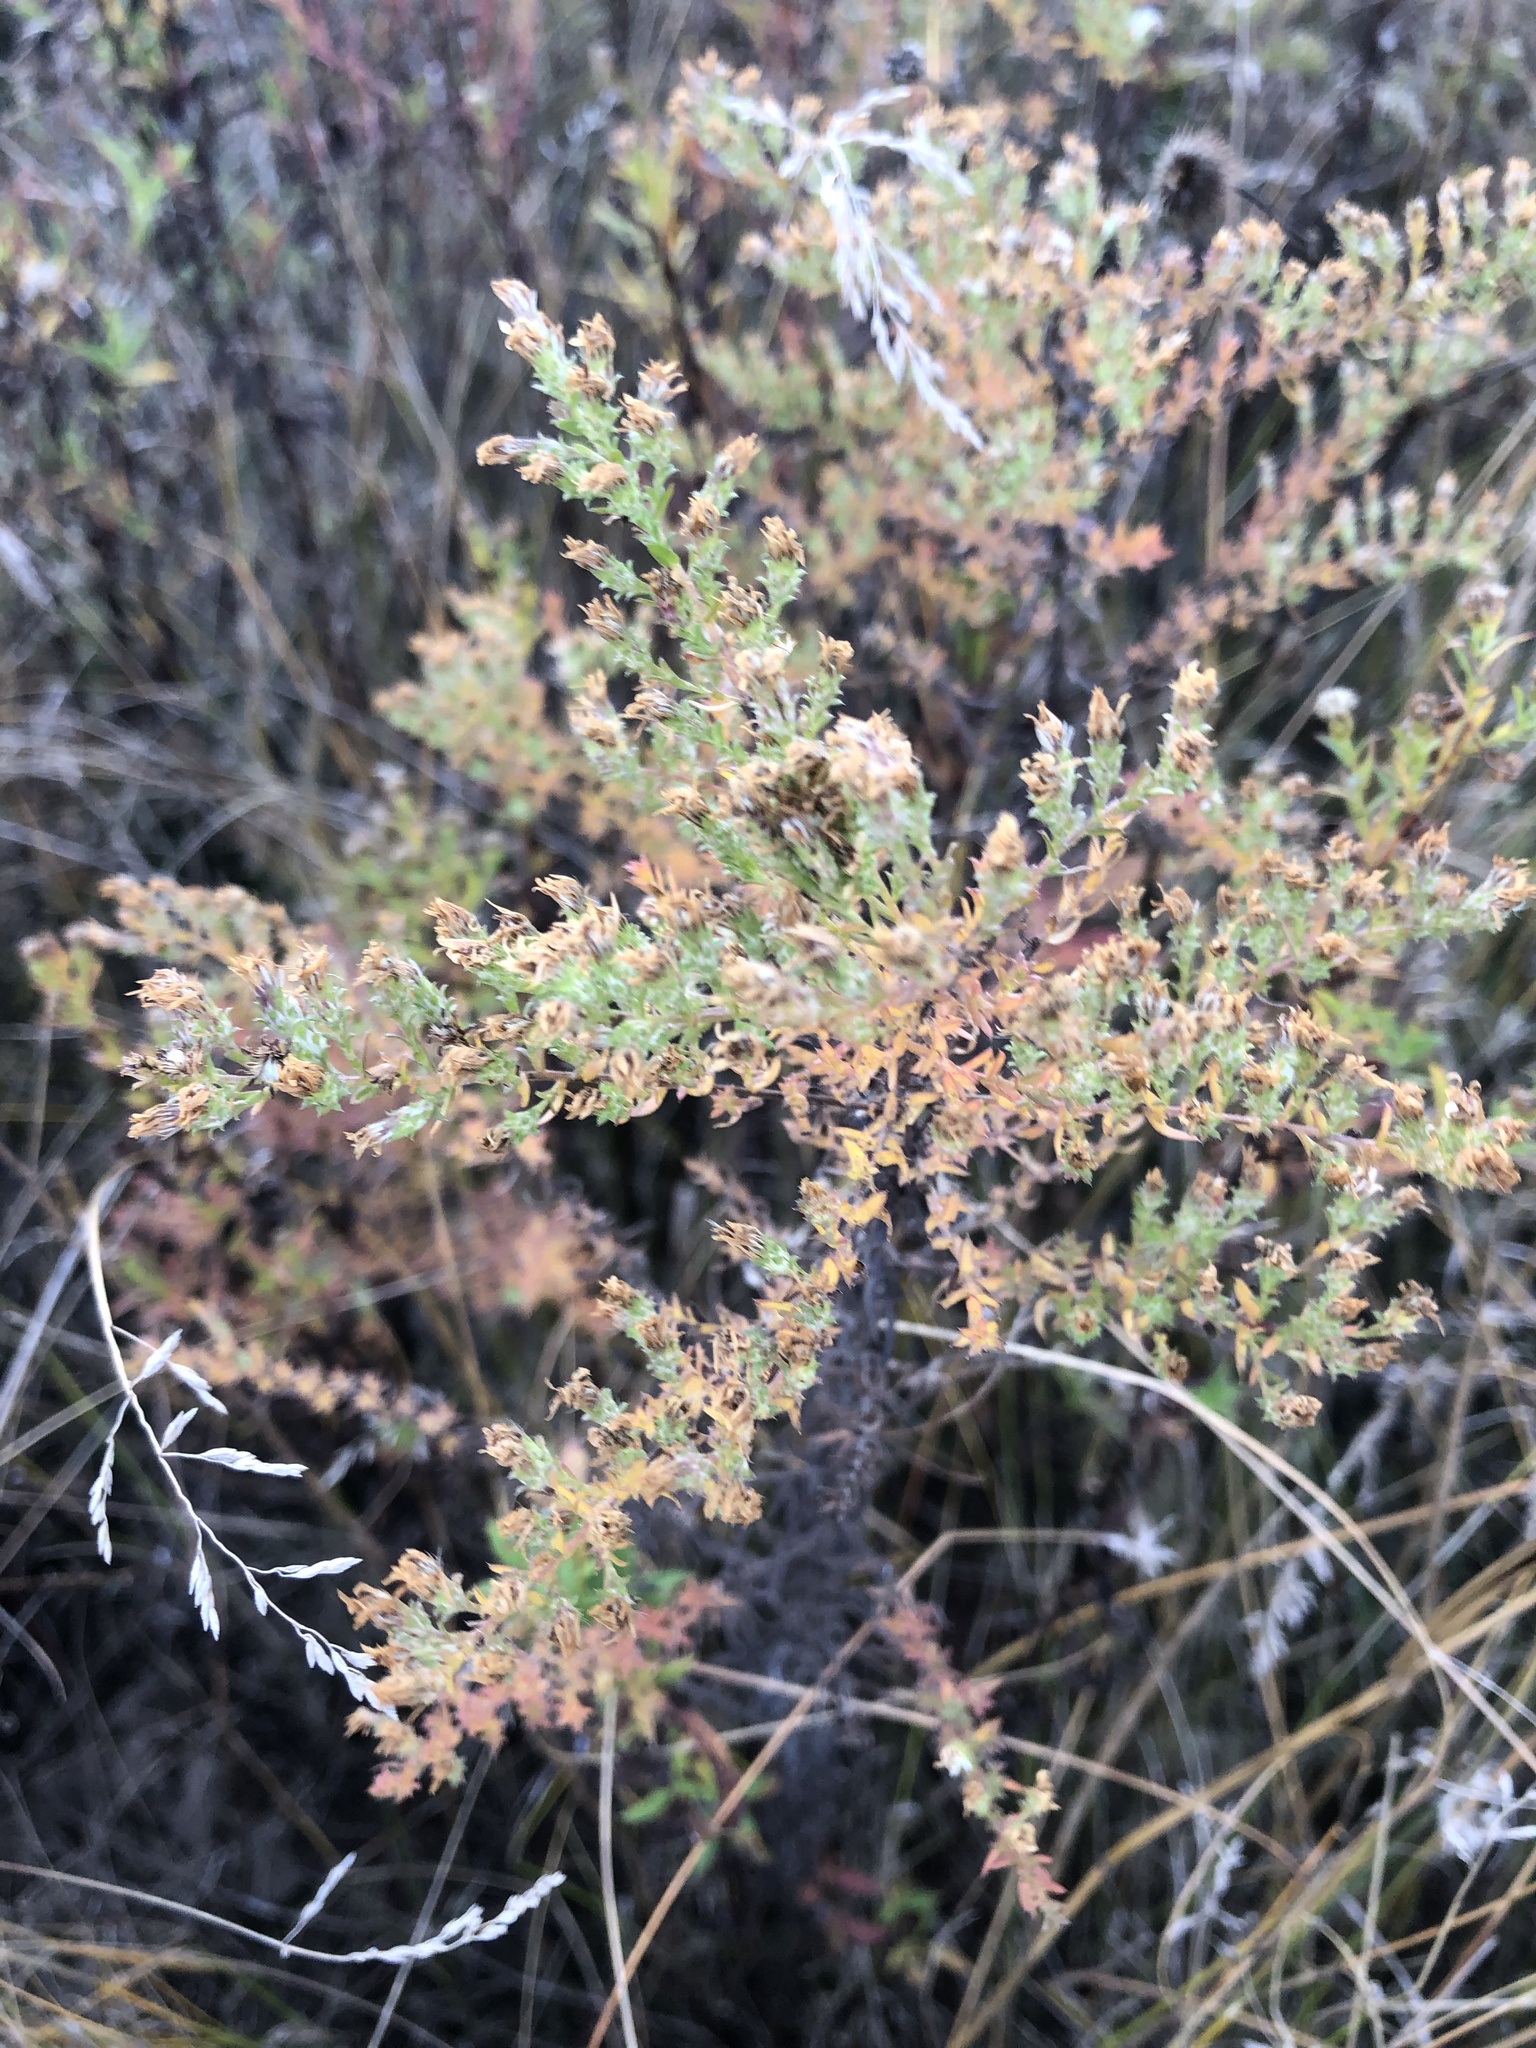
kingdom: Plantae
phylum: Tracheophyta
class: Magnoliopsida
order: Asterales
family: Asteraceae
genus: Symphyotrichum
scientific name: Symphyotrichum ericoides
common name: Heath aster
